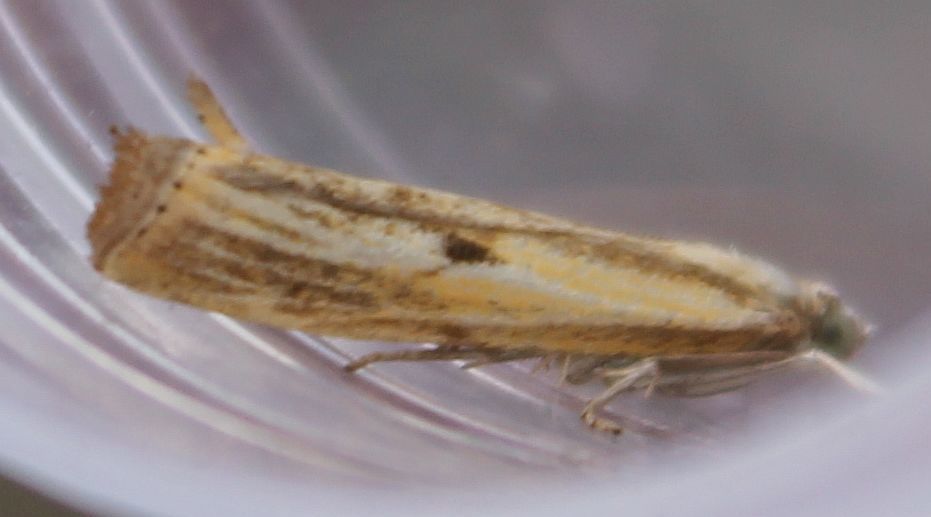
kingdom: Animalia
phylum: Arthropoda
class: Insecta
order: Lepidoptera
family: Crambidae
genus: Agriphila
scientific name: Agriphila inquinatella
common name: Barred grass-veneer
